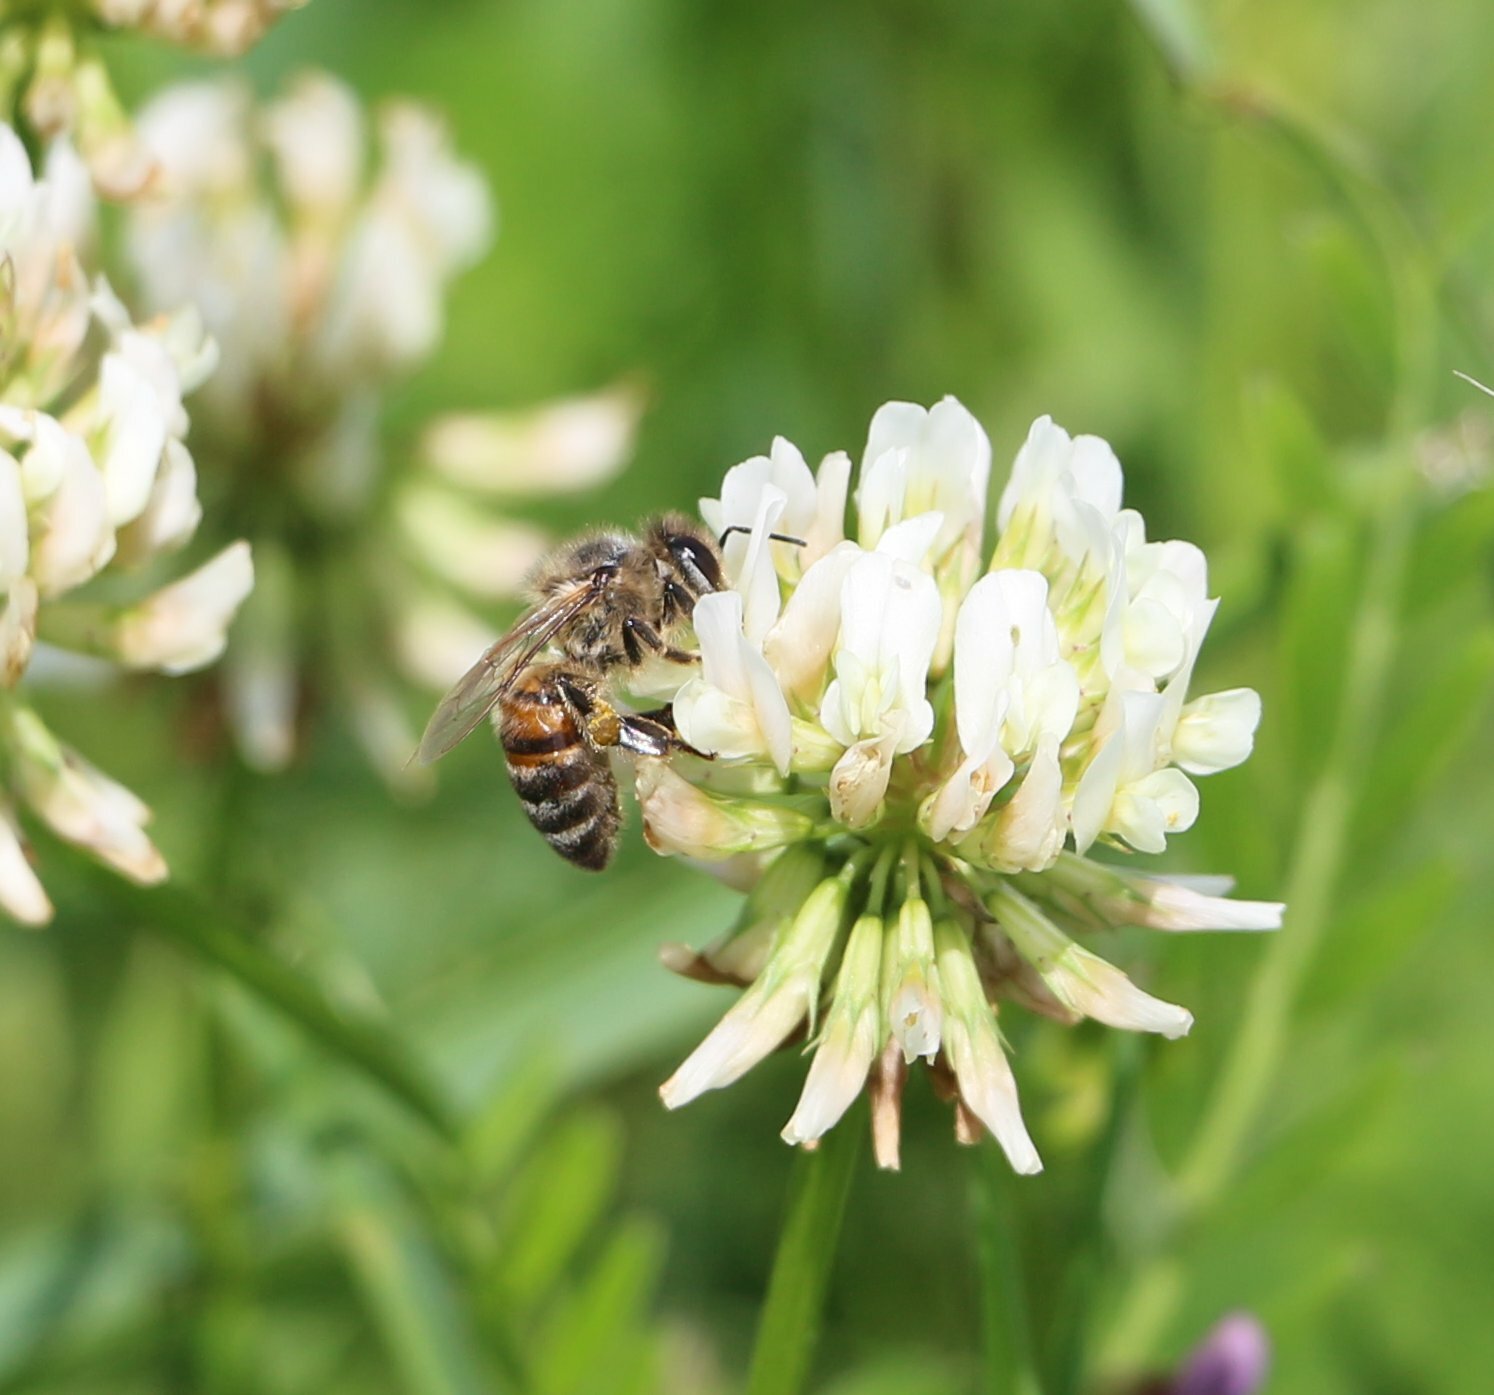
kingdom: Animalia
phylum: Arthropoda
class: Insecta
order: Hymenoptera
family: Apidae
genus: Apis
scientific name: Apis mellifera
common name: Honey bee
